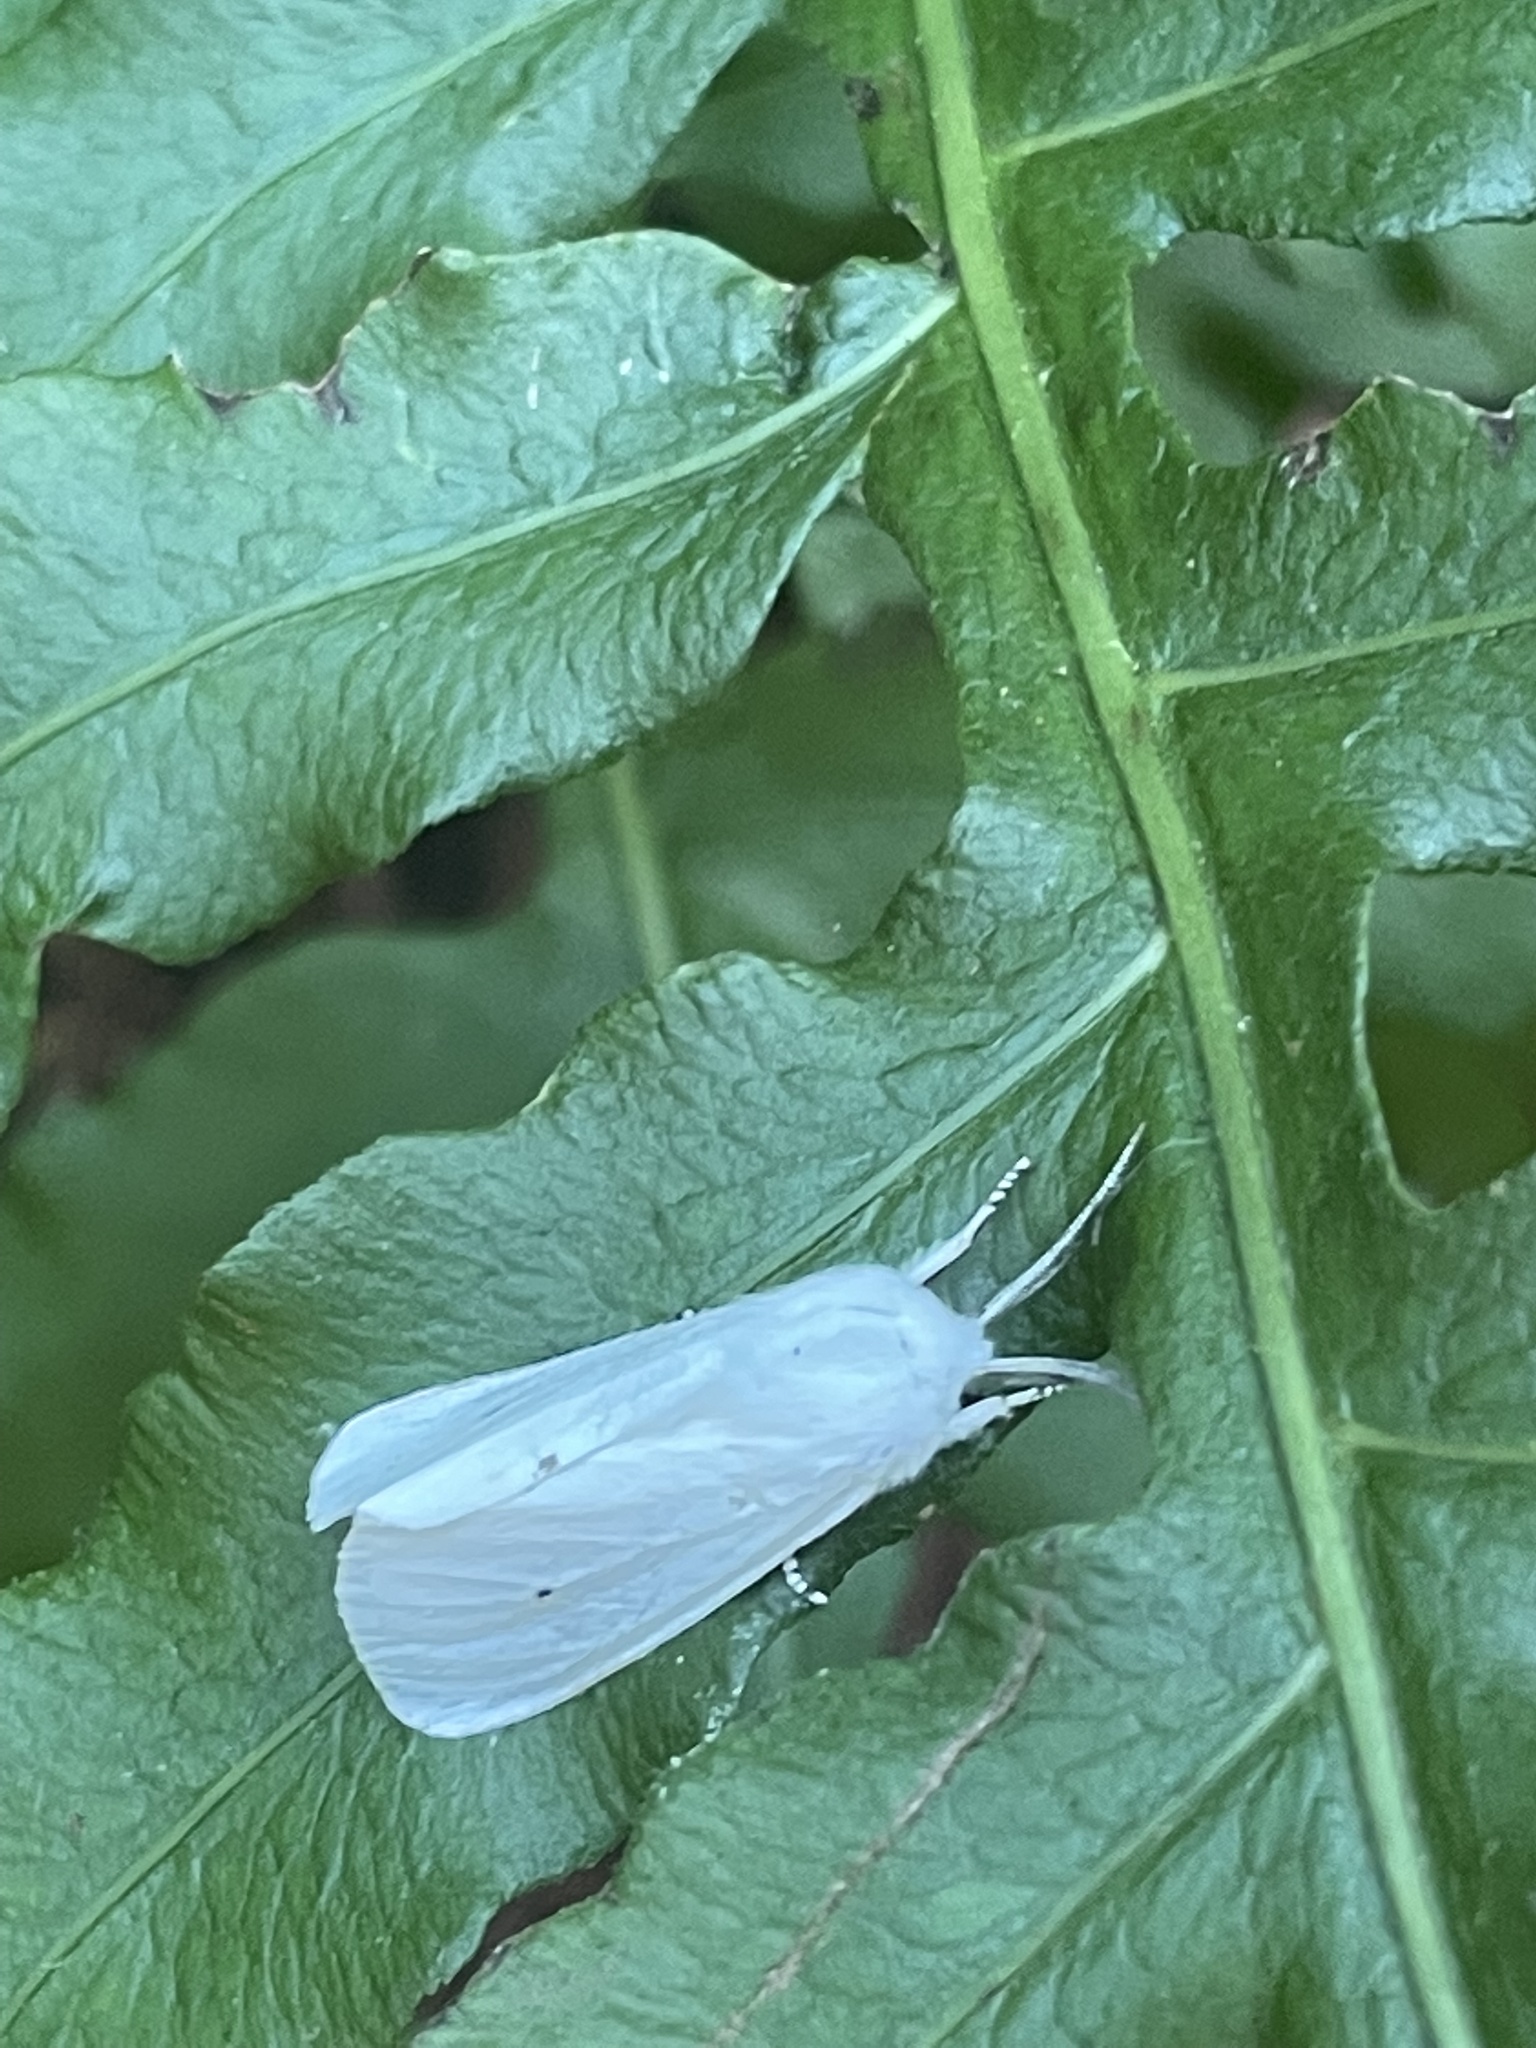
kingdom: Animalia
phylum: Arthropoda
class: Insecta
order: Lepidoptera
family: Erebidae
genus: Spilosoma
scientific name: Spilosoma virginica
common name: Virginia tiger moth
